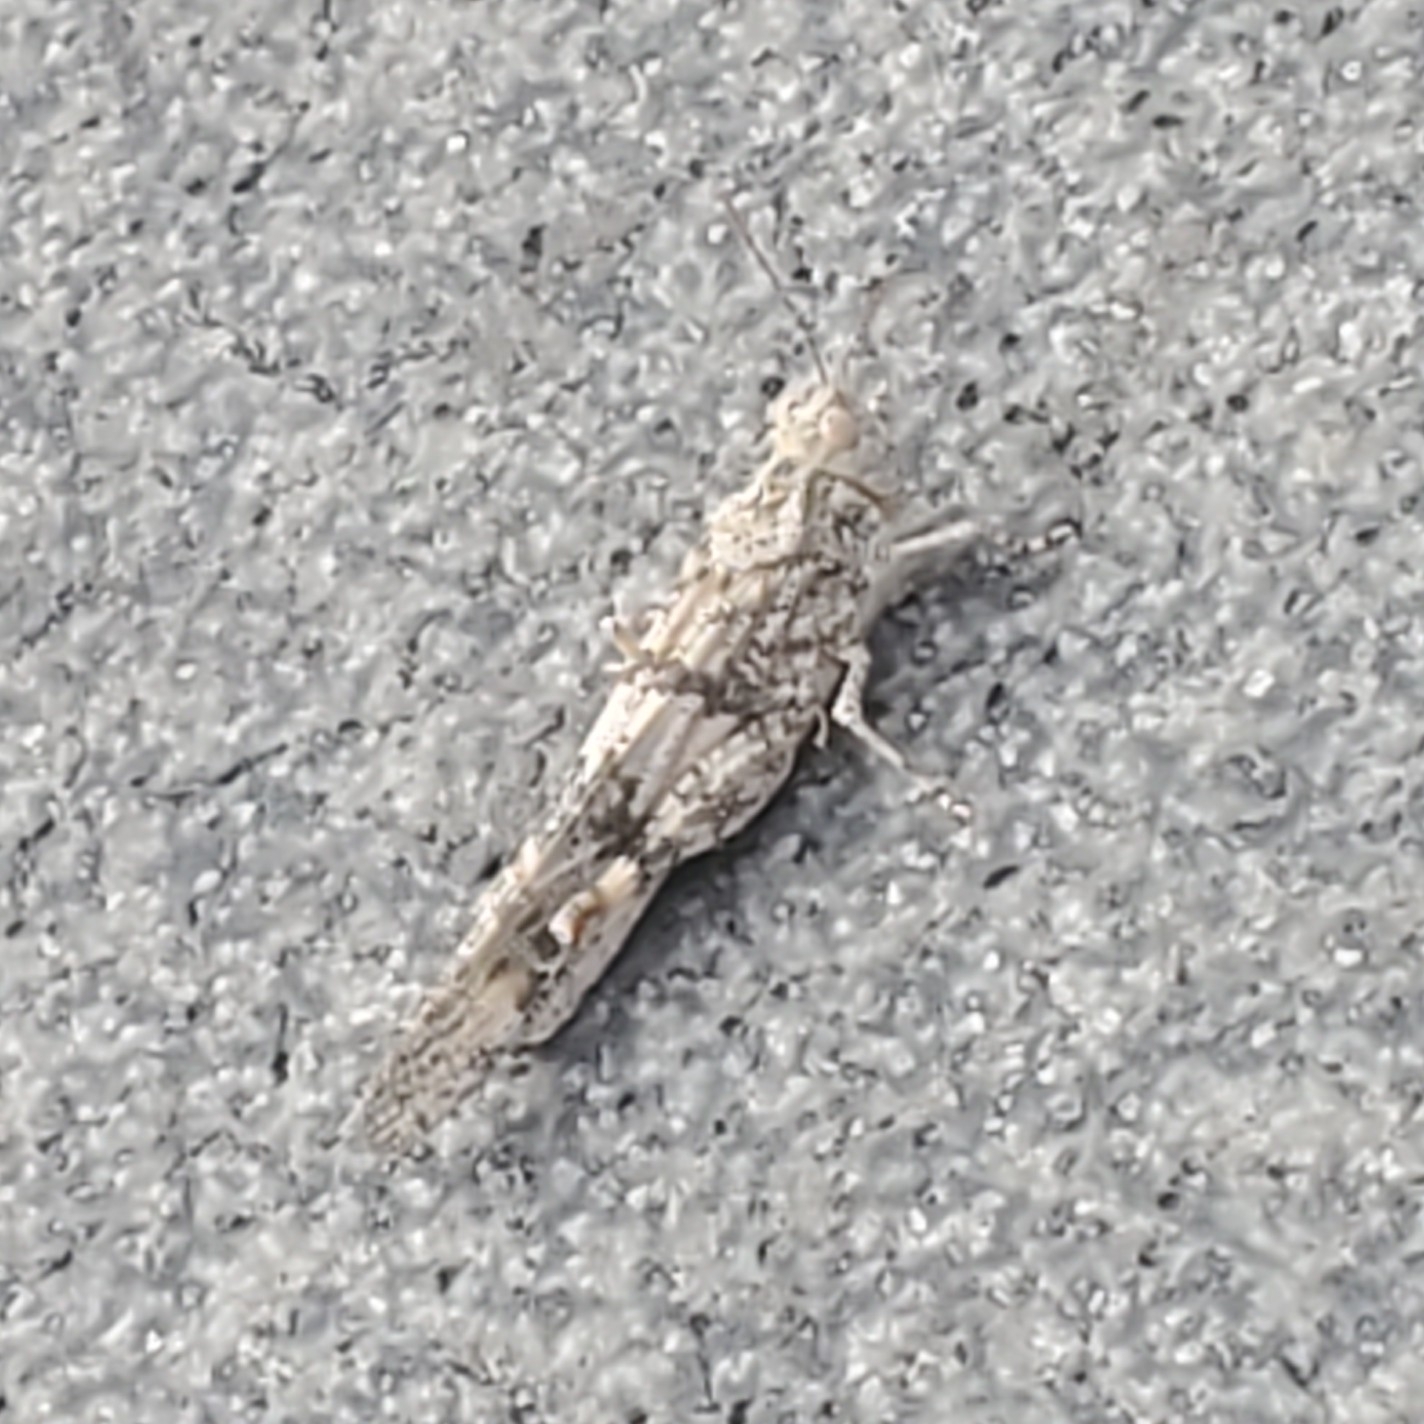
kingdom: Animalia
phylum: Arthropoda
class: Insecta
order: Orthoptera
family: Acrididae
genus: Trimerotropis
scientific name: Trimerotropis pallidipennis
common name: Pallid-winged grasshopper
